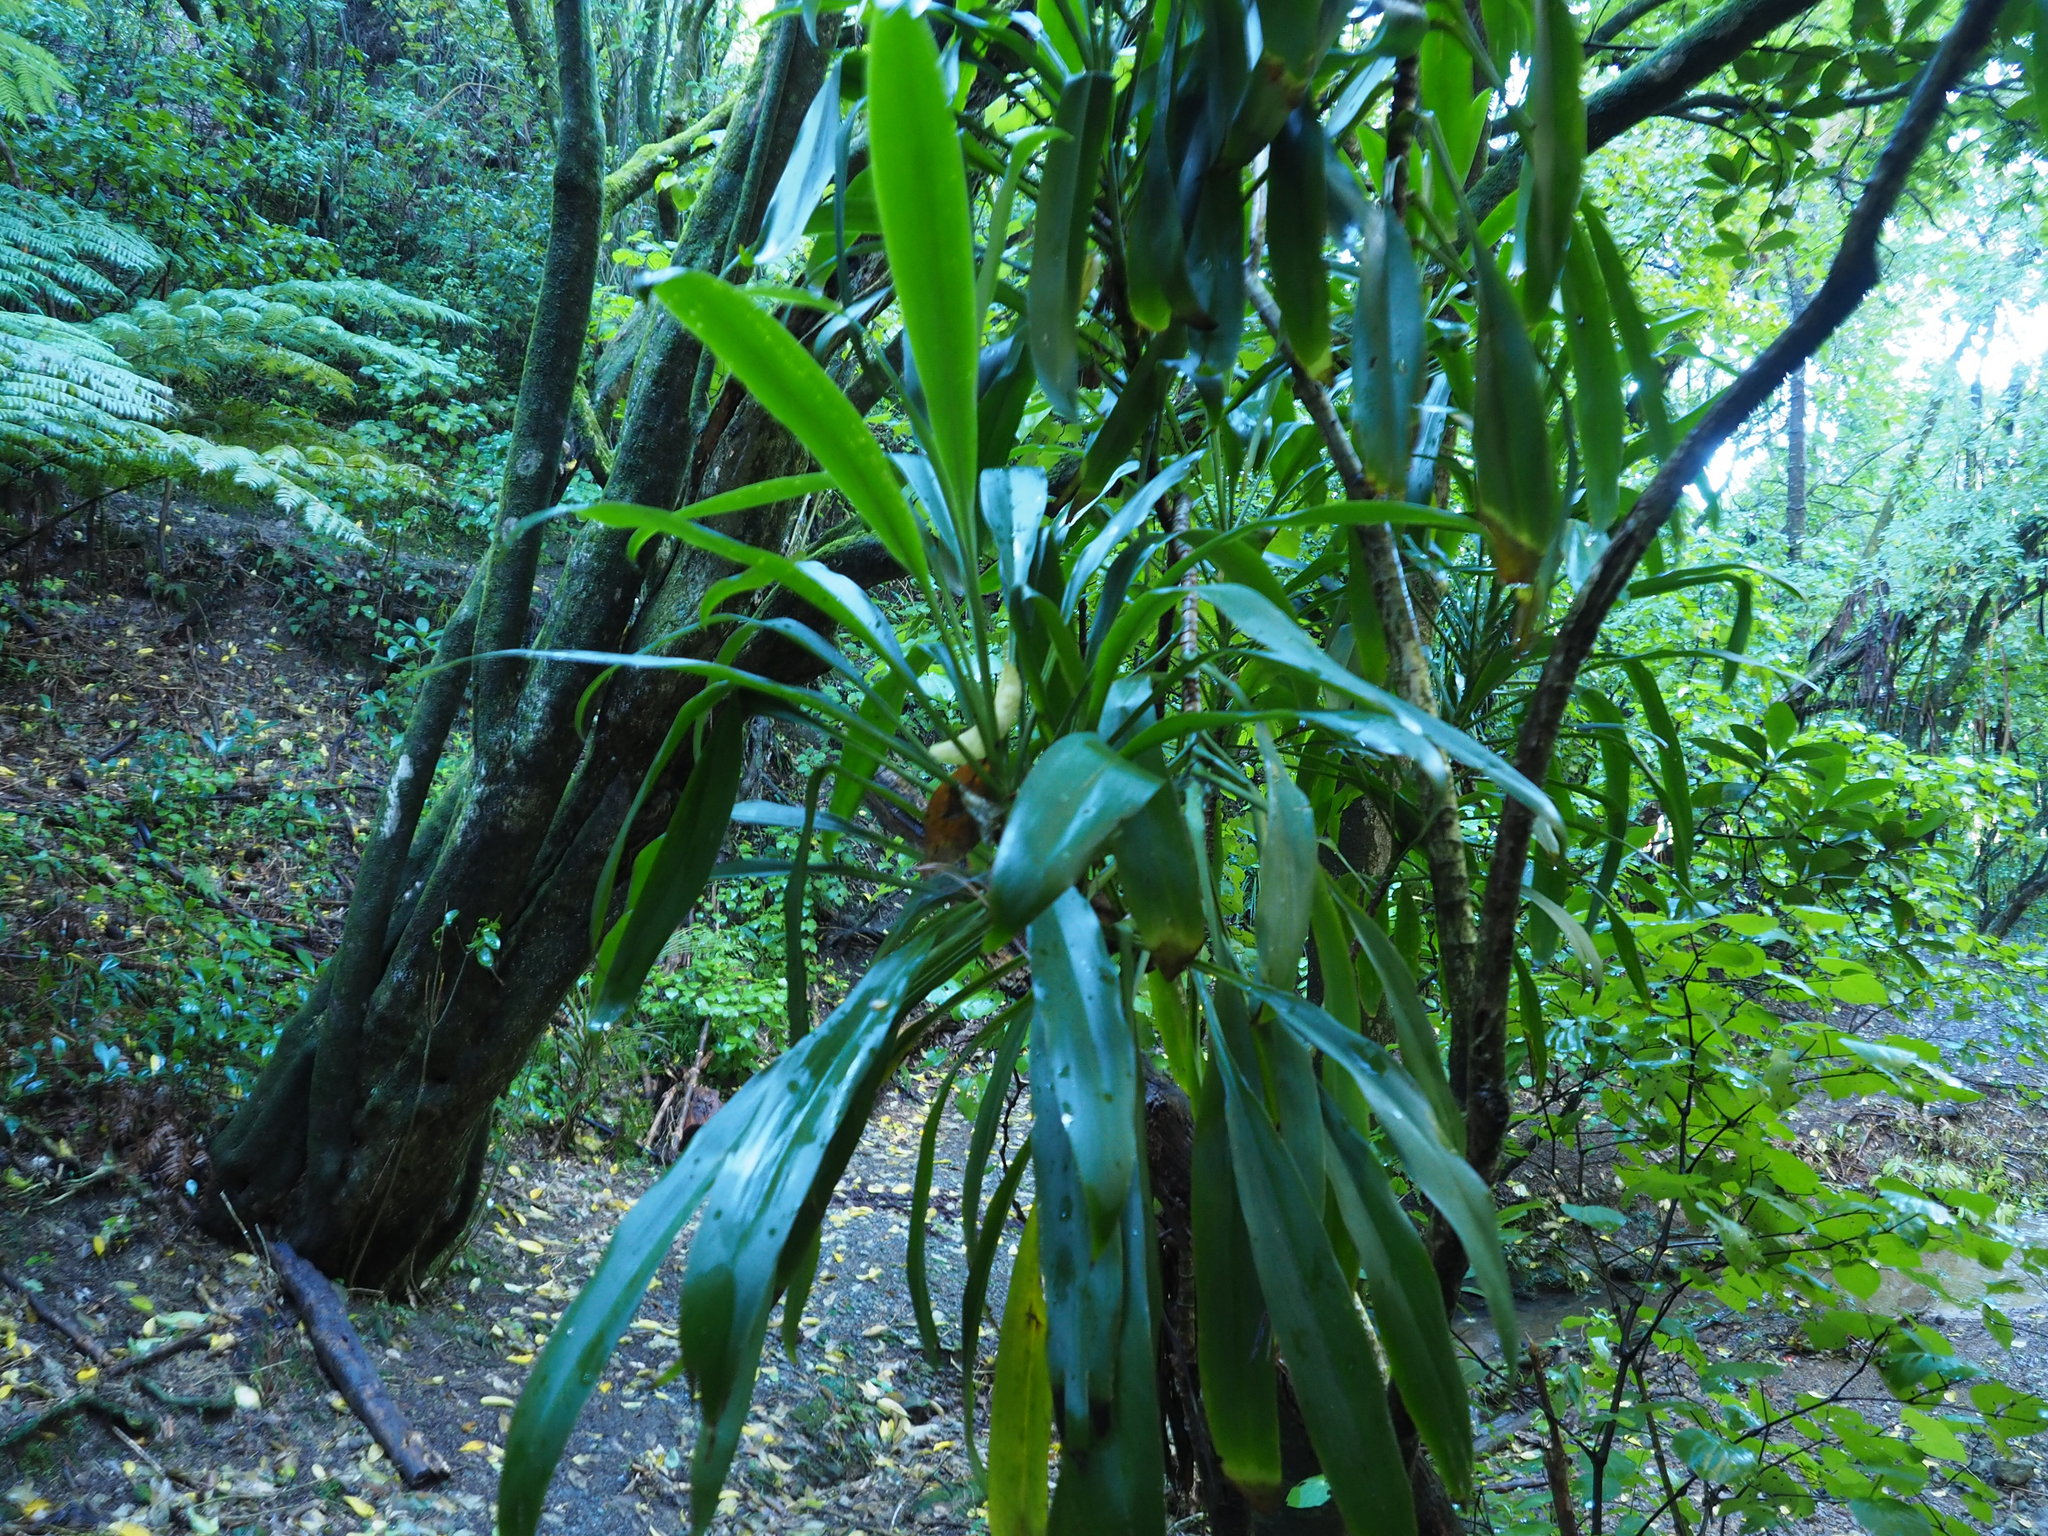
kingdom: Plantae
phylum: Tracheophyta
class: Liliopsida
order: Asparagales
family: Asparagaceae
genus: Cordyline
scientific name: Cordyline fruticosa
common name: Good-luck-plant
